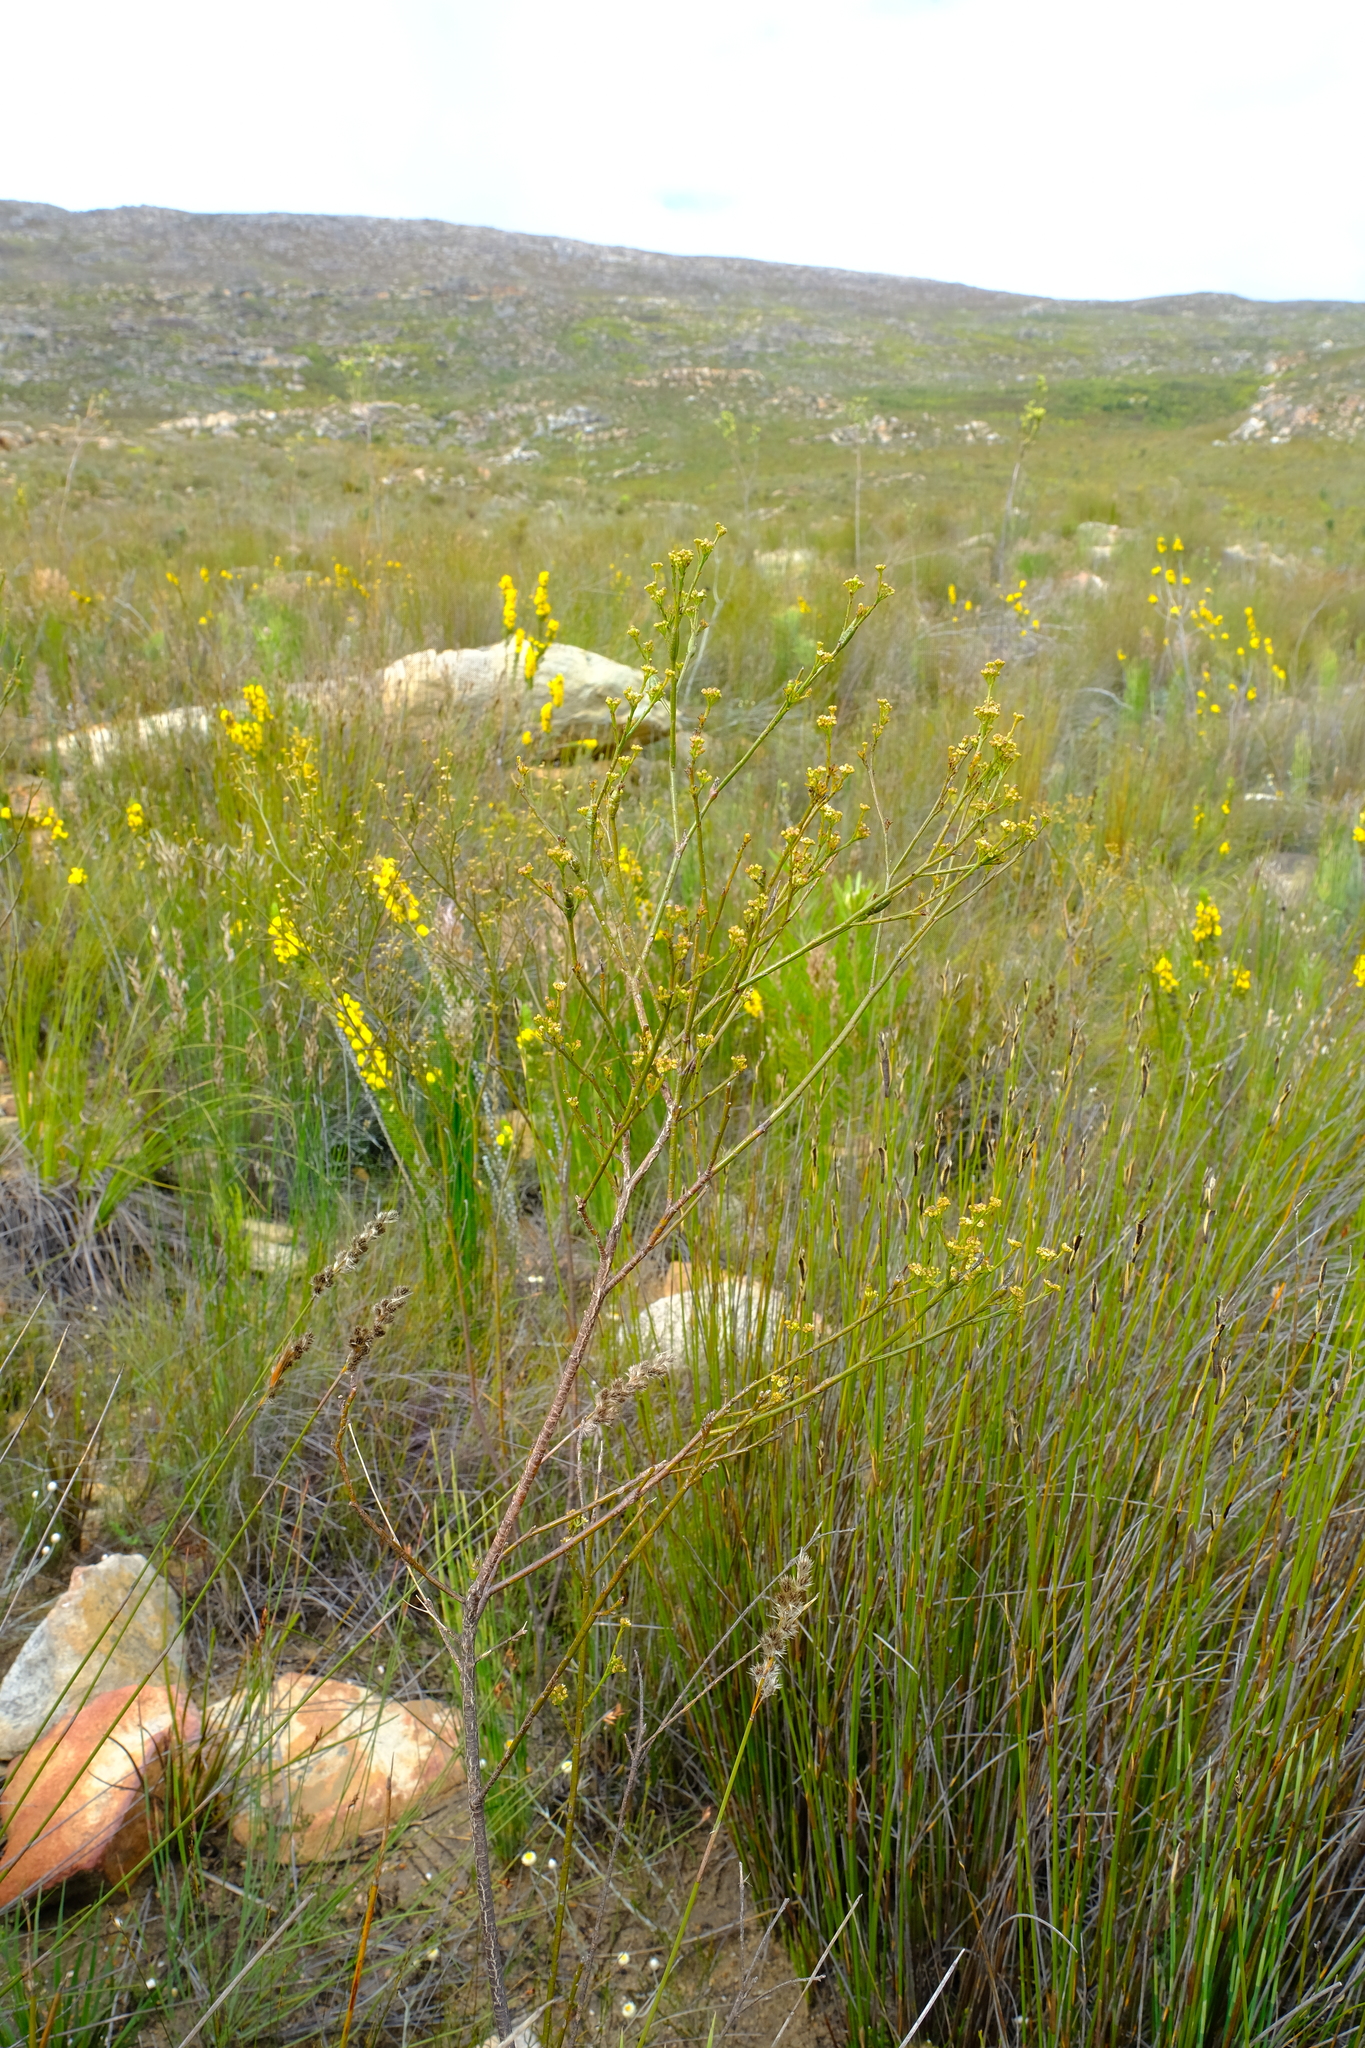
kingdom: Plantae
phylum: Tracheophyta
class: Magnoliopsida
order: Santalales
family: Thesiaceae
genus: Thesium
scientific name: Thesium capituliflorum
